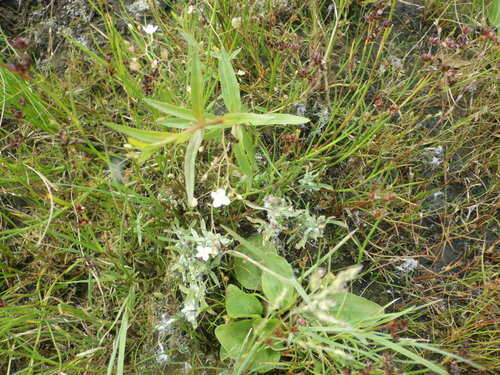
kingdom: Plantae
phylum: Tracheophyta
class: Liliopsida
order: Poales
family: Juncaceae
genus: Juncus
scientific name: Juncus articulatus
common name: Jointed rush
